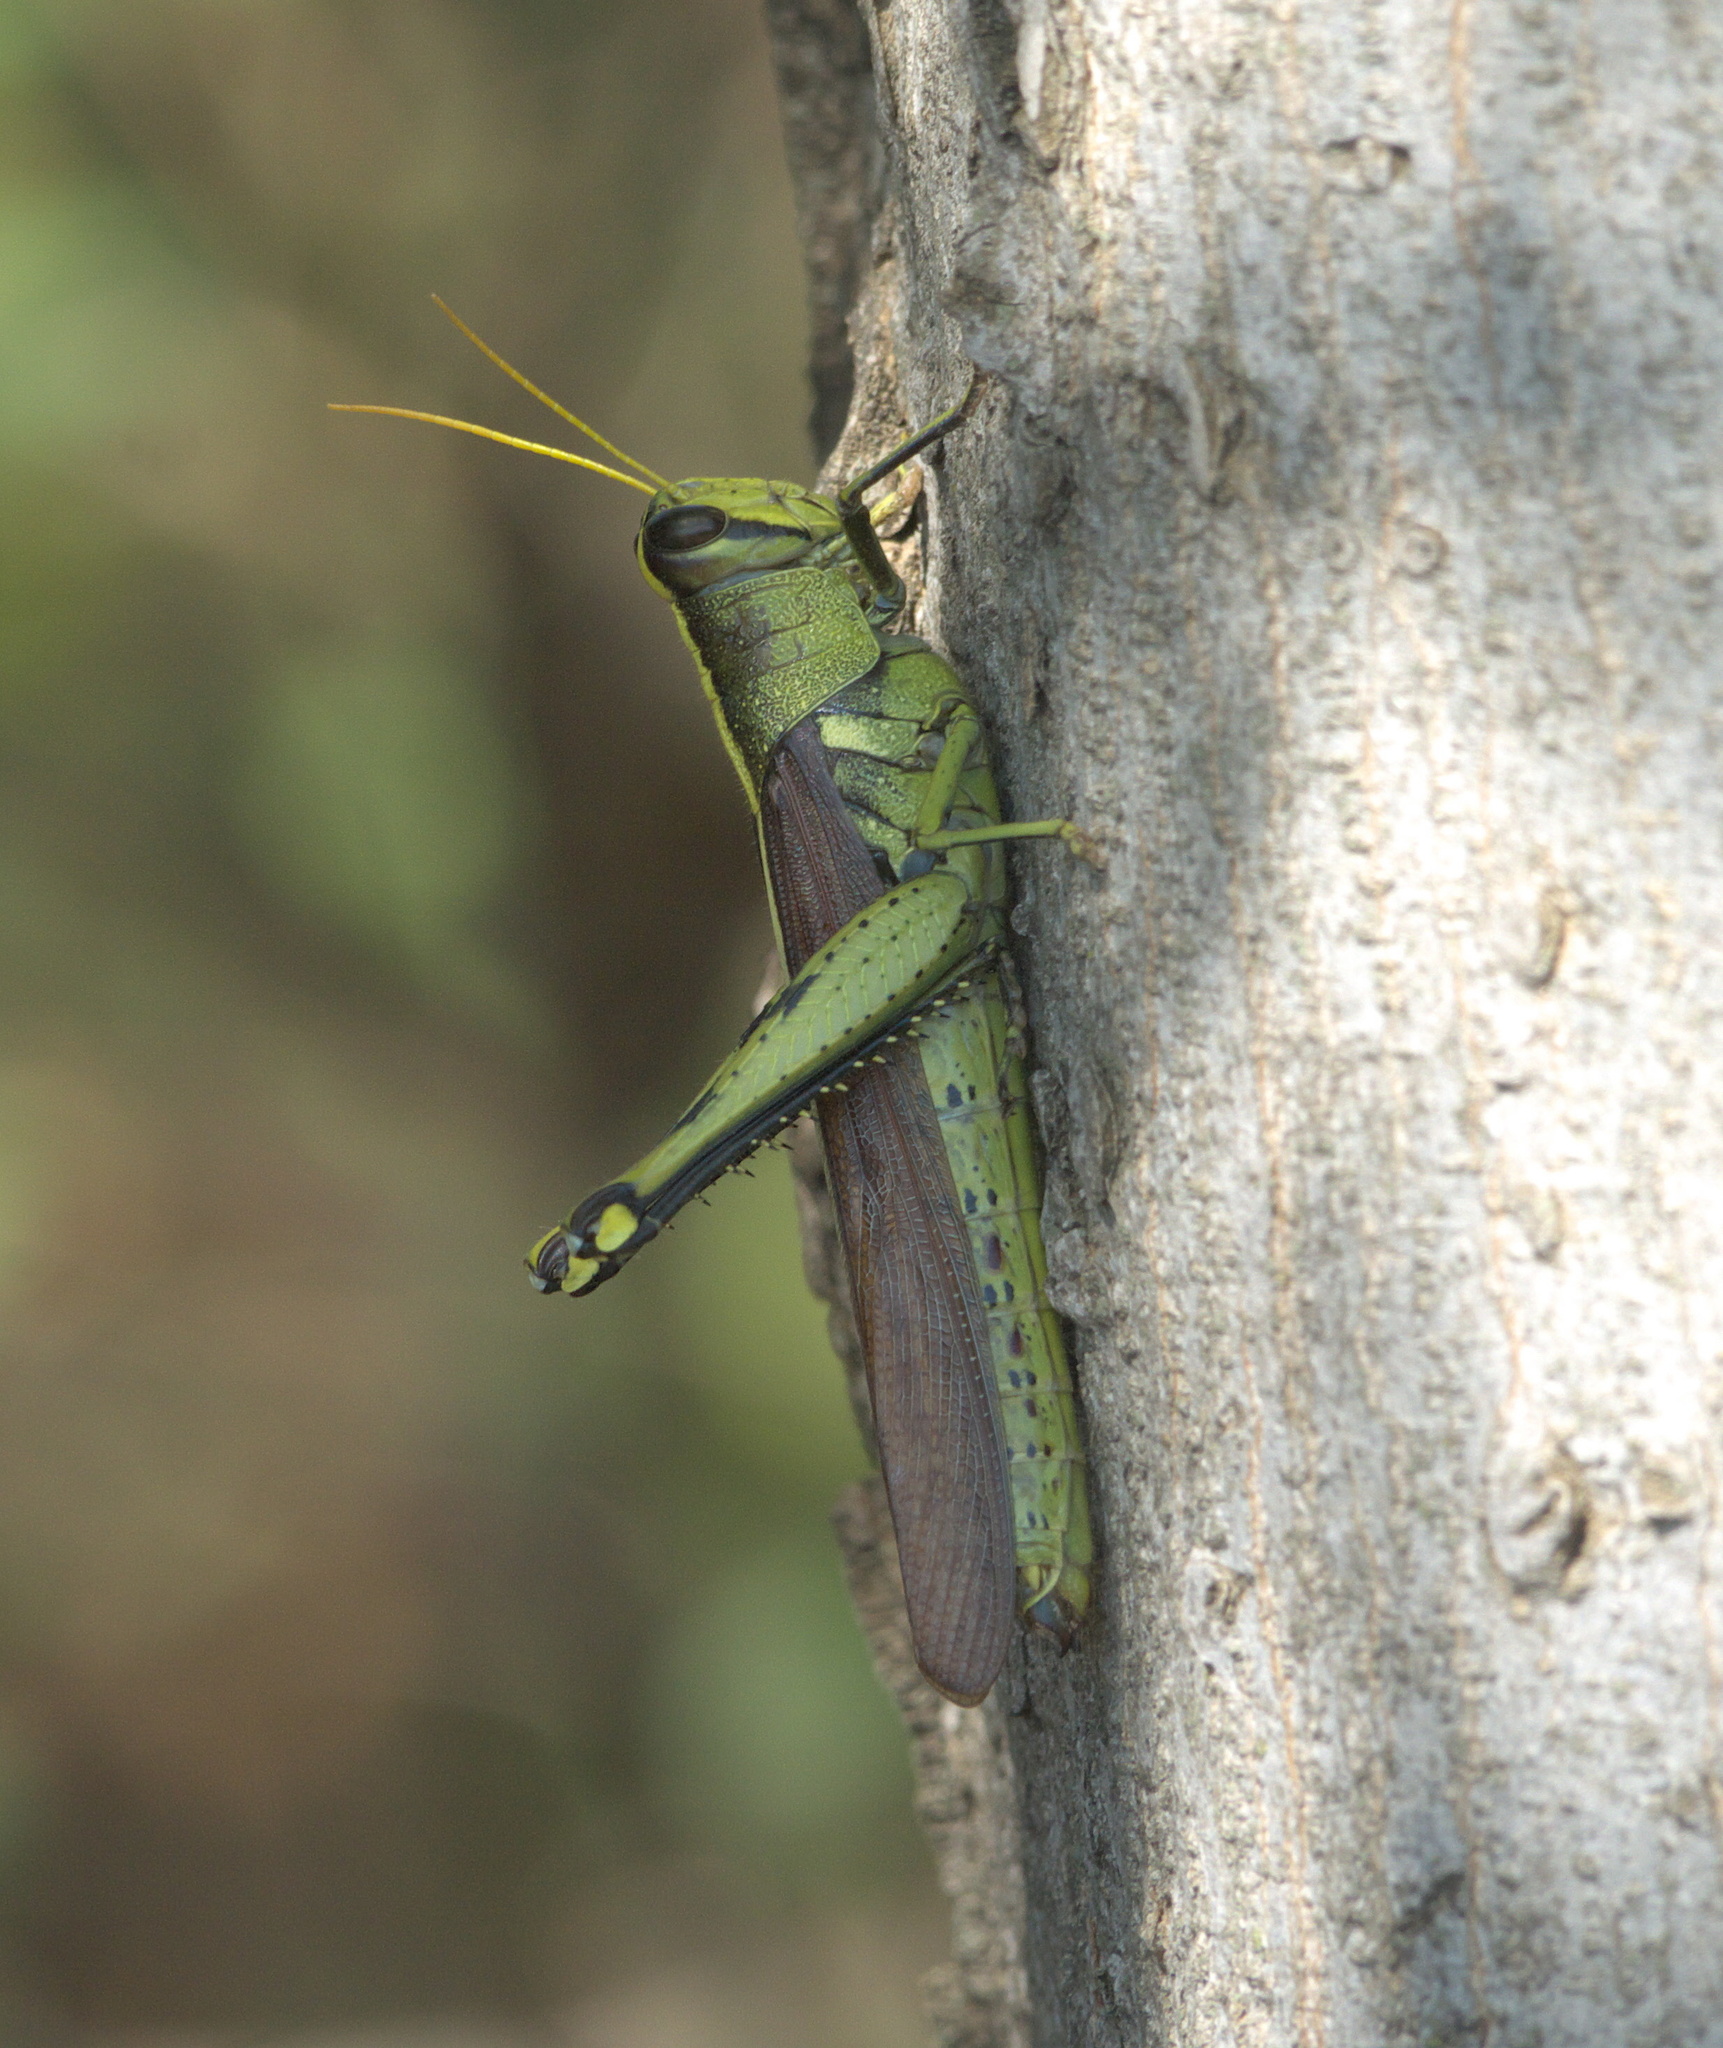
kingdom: Animalia
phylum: Arthropoda
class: Insecta
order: Orthoptera
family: Acrididae
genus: Schistocerca
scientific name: Schistocerca obscura
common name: Obscure bird grasshopper
